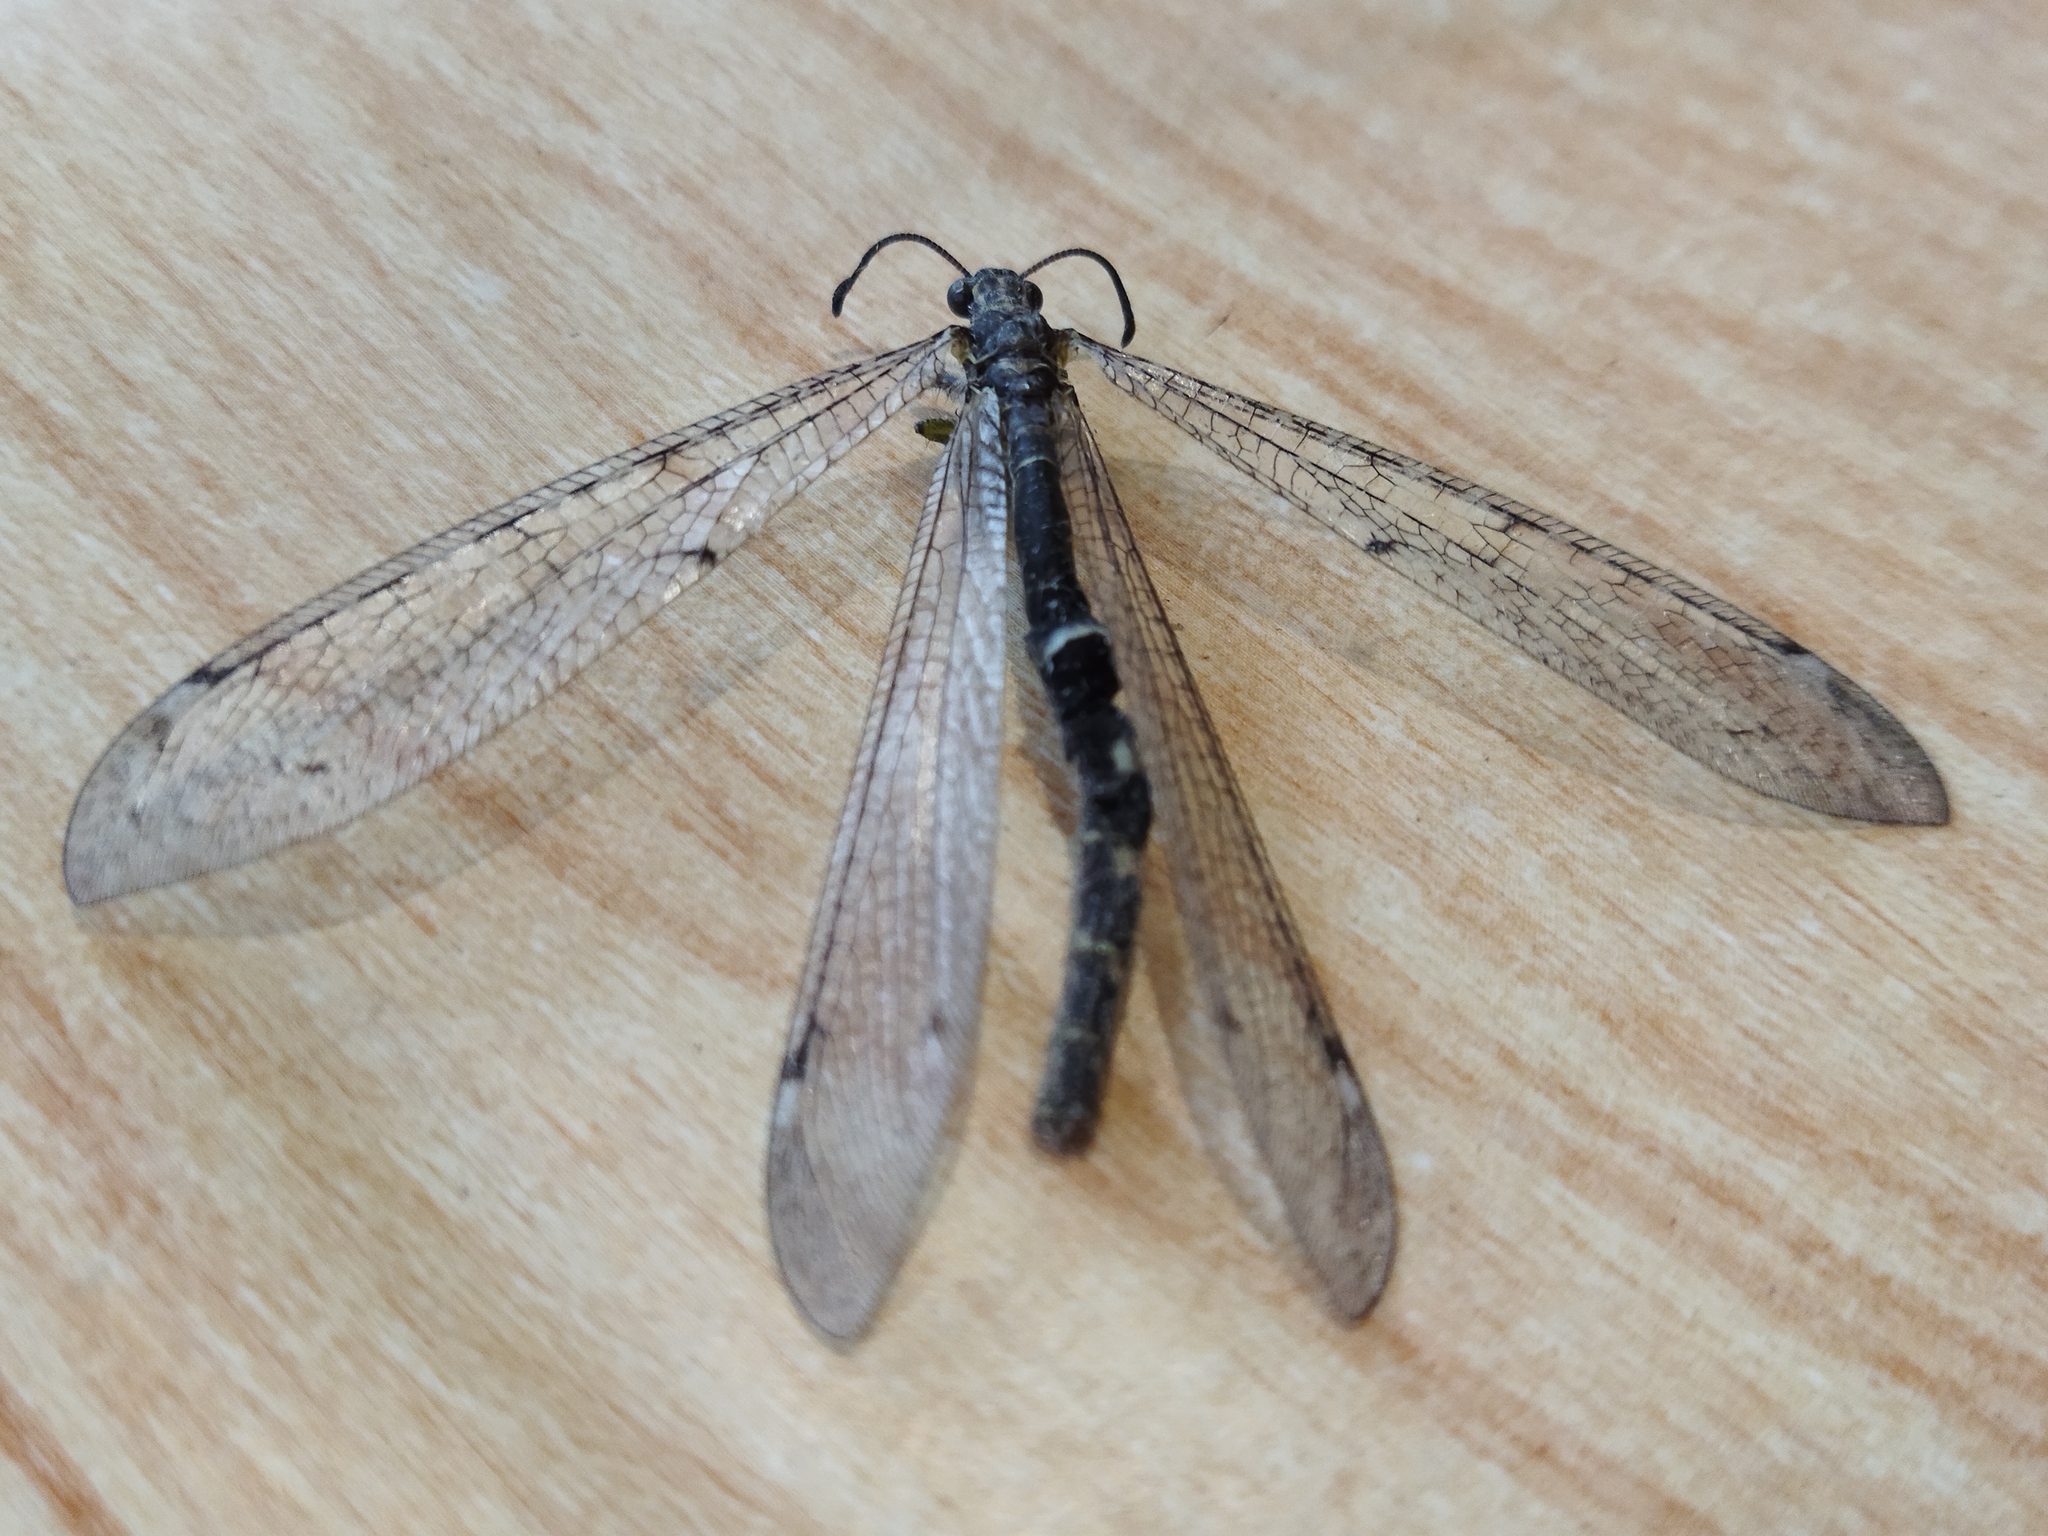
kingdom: Animalia
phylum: Arthropoda
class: Insecta
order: Neuroptera
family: Myrmeleontidae
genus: Distoleon
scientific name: Distoleon tetragrammicus
